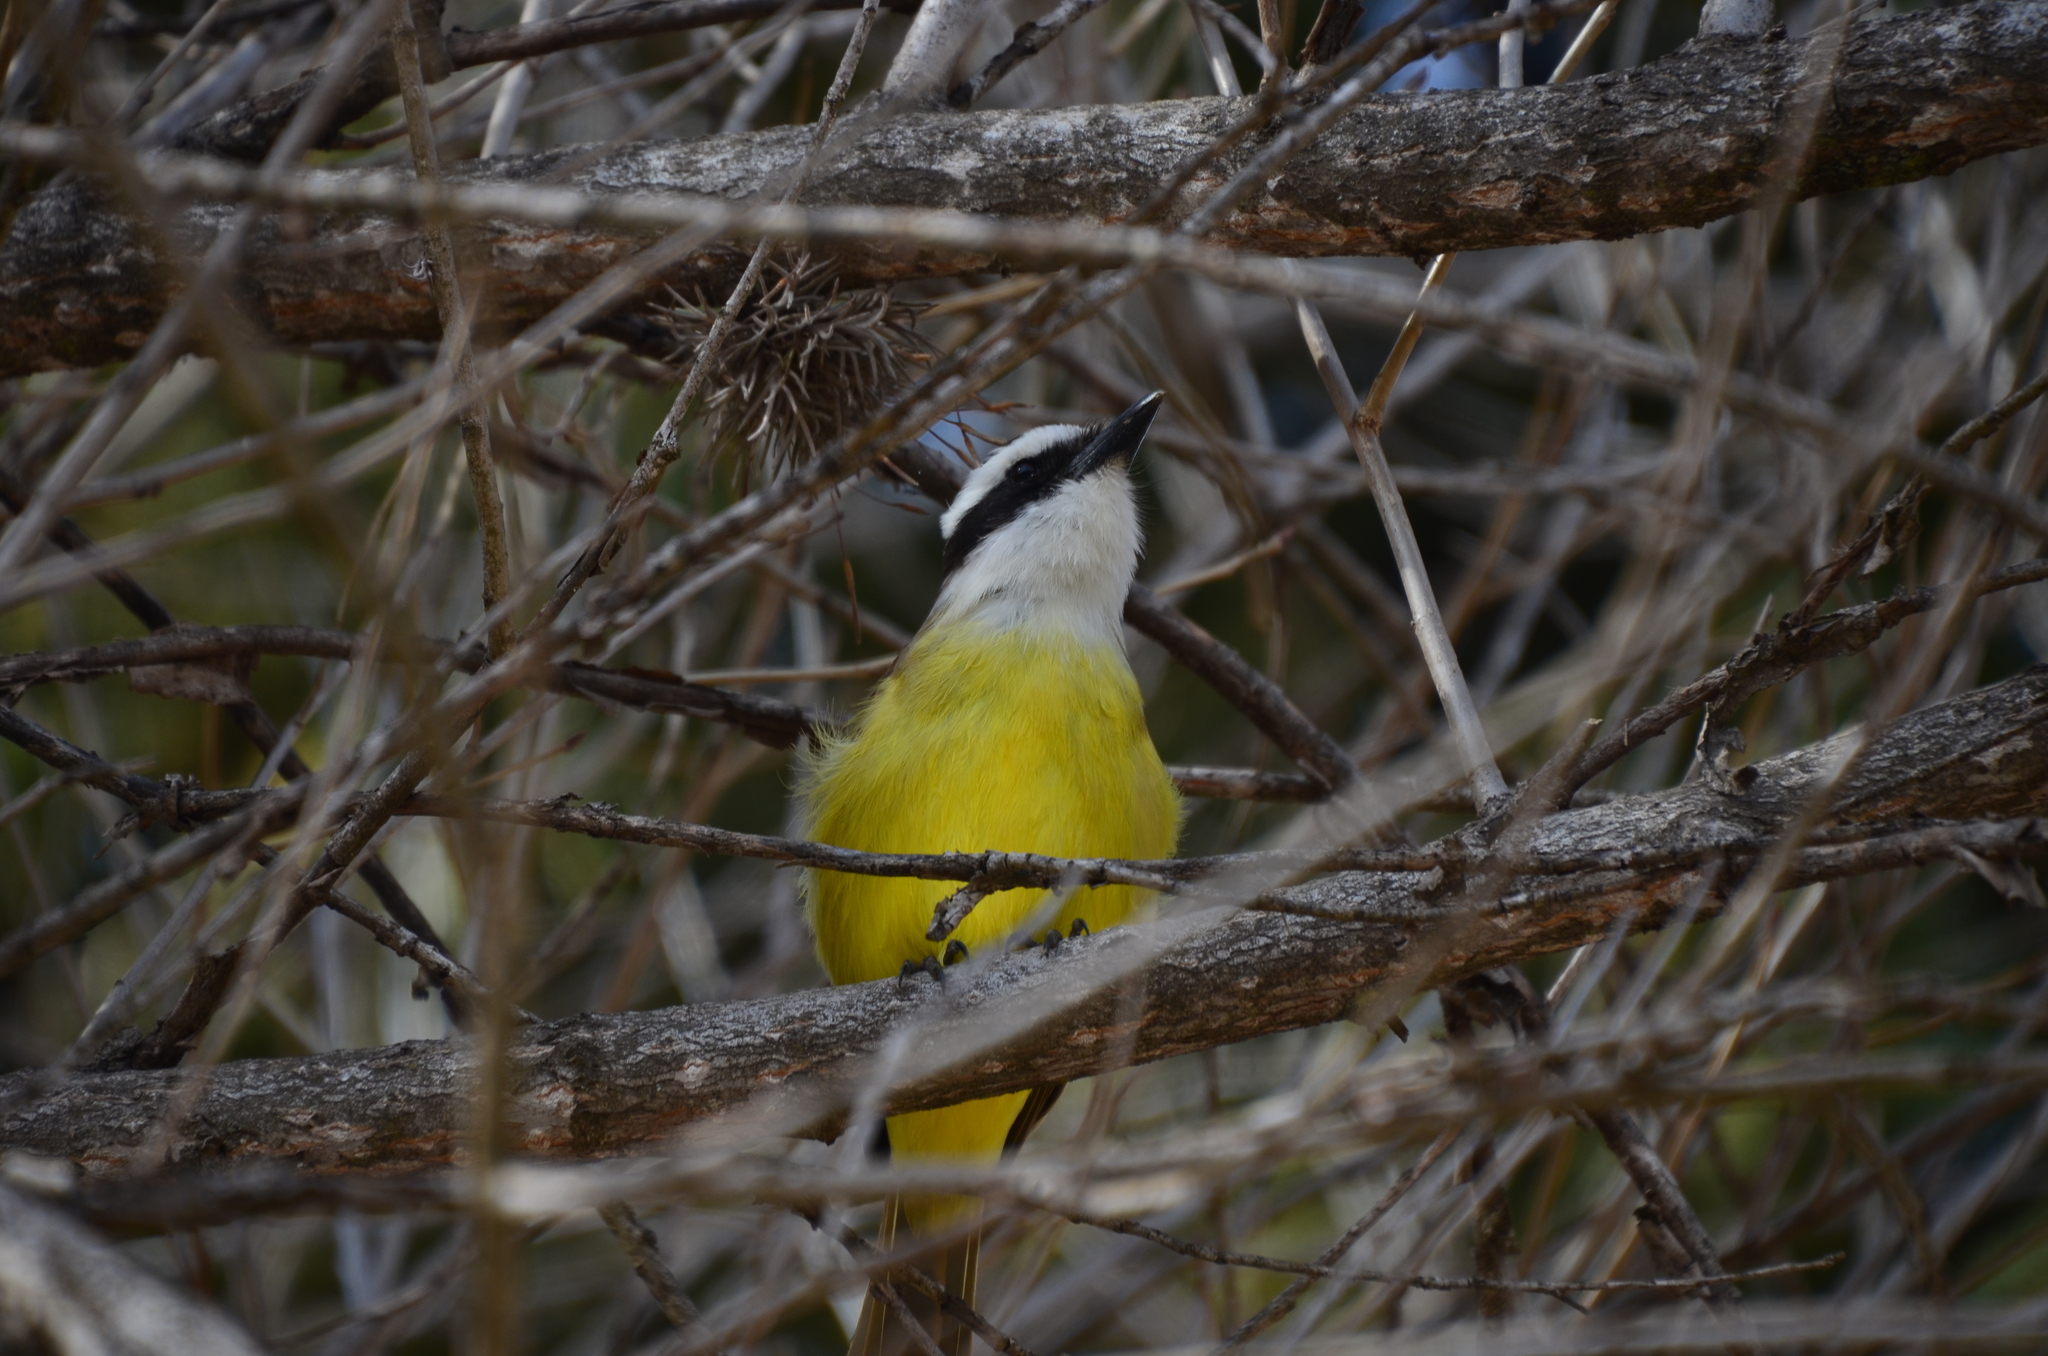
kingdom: Animalia
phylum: Chordata
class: Aves
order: Passeriformes
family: Tyrannidae
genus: Pitangus
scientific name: Pitangus sulphuratus
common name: Great kiskadee
